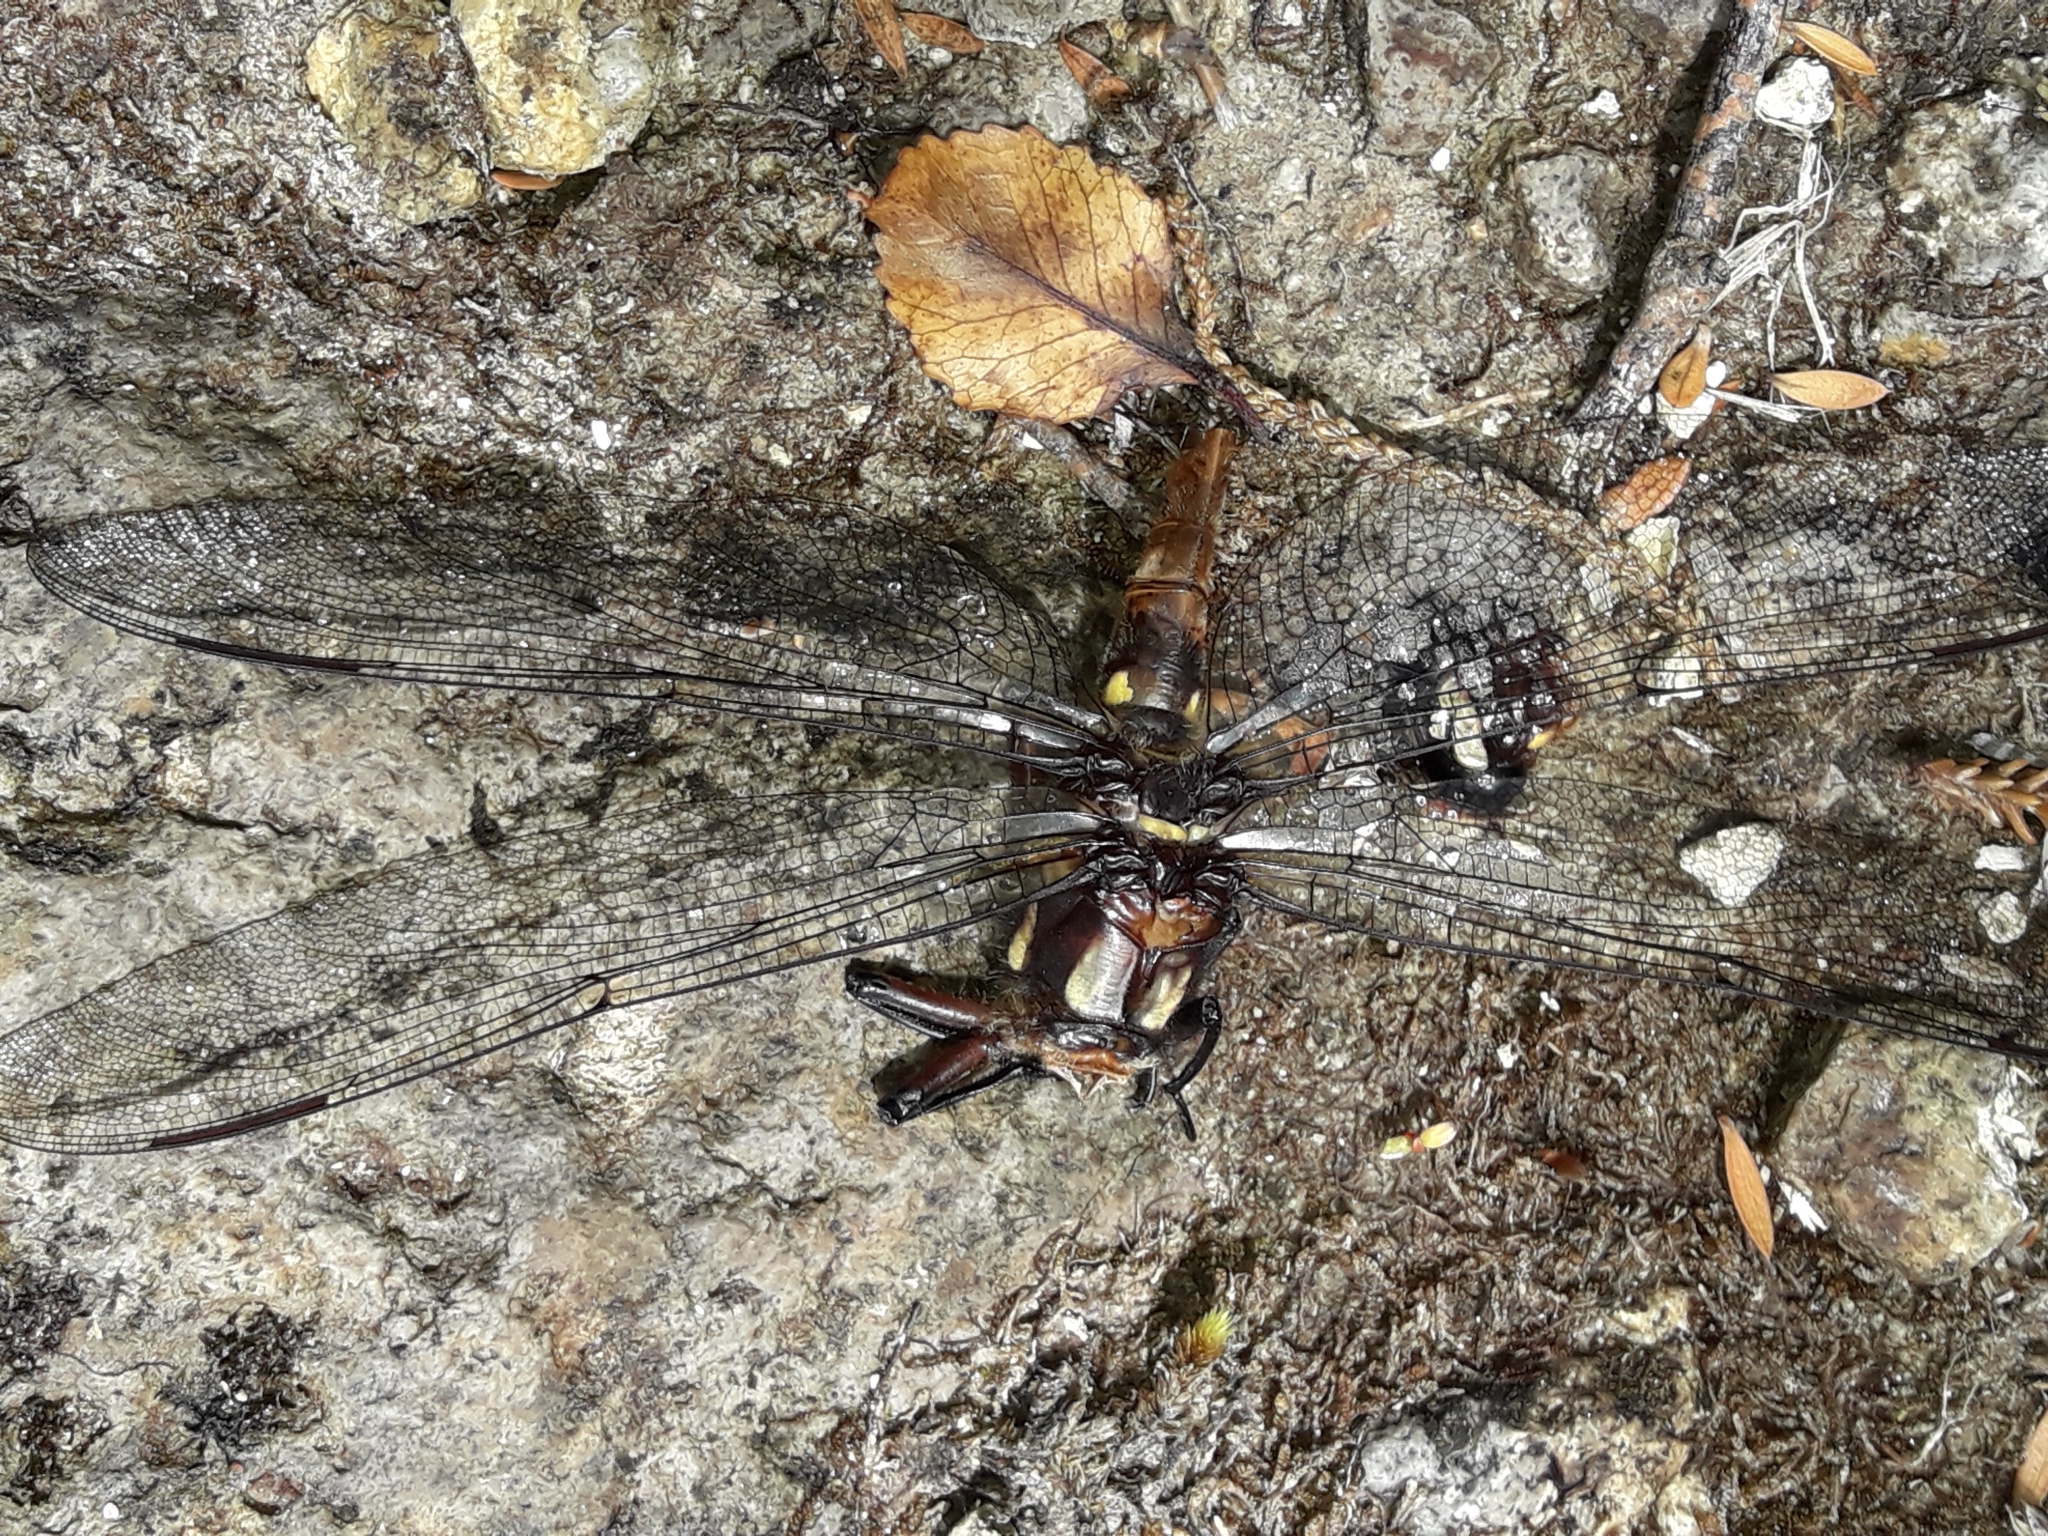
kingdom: Animalia
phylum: Arthropoda
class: Insecta
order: Odonata
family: Petaluridae
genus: Uropetala
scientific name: Uropetala carovei
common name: Bush giant dragonfly
